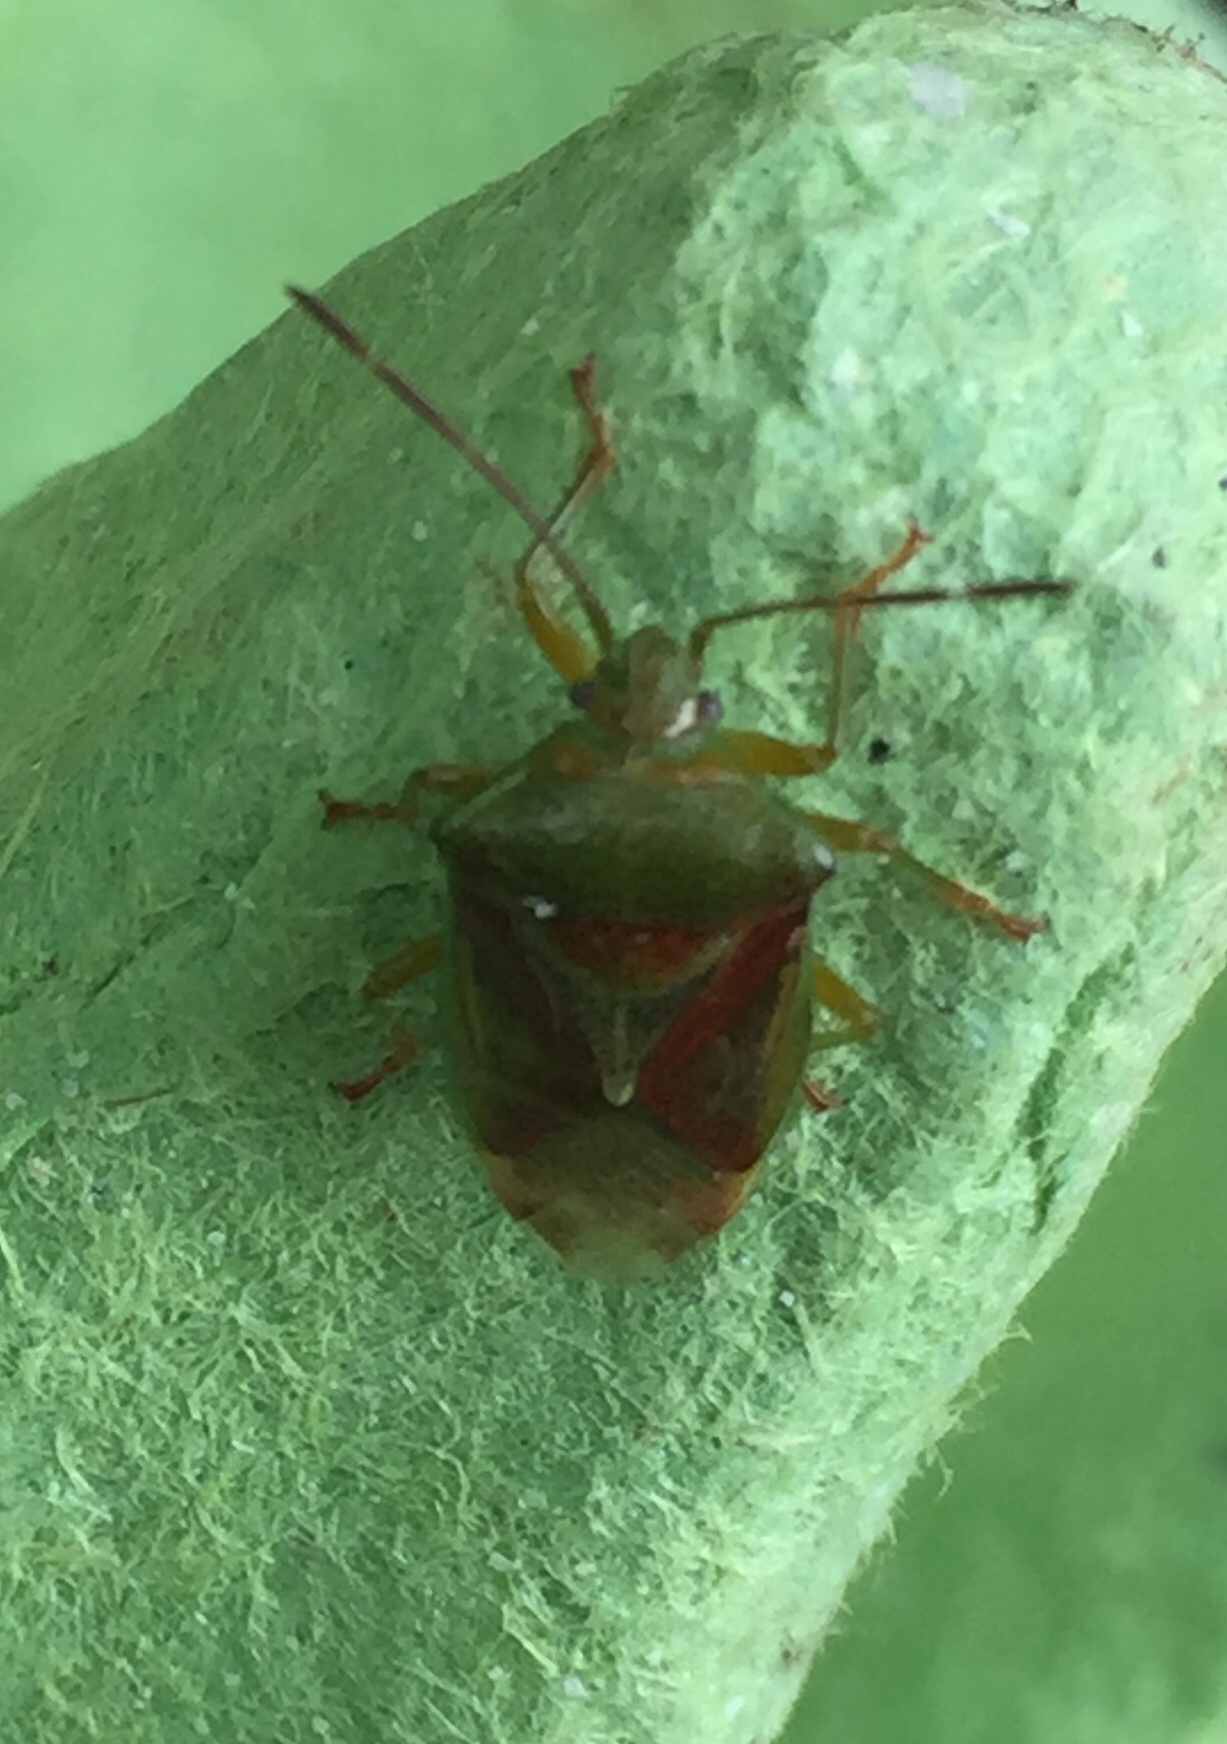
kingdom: Animalia
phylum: Arthropoda
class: Insecta
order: Hemiptera
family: Acanthosomatidae
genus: Elasmostethus
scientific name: Elasmostethus interstinctus
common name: Birch shieldbug
